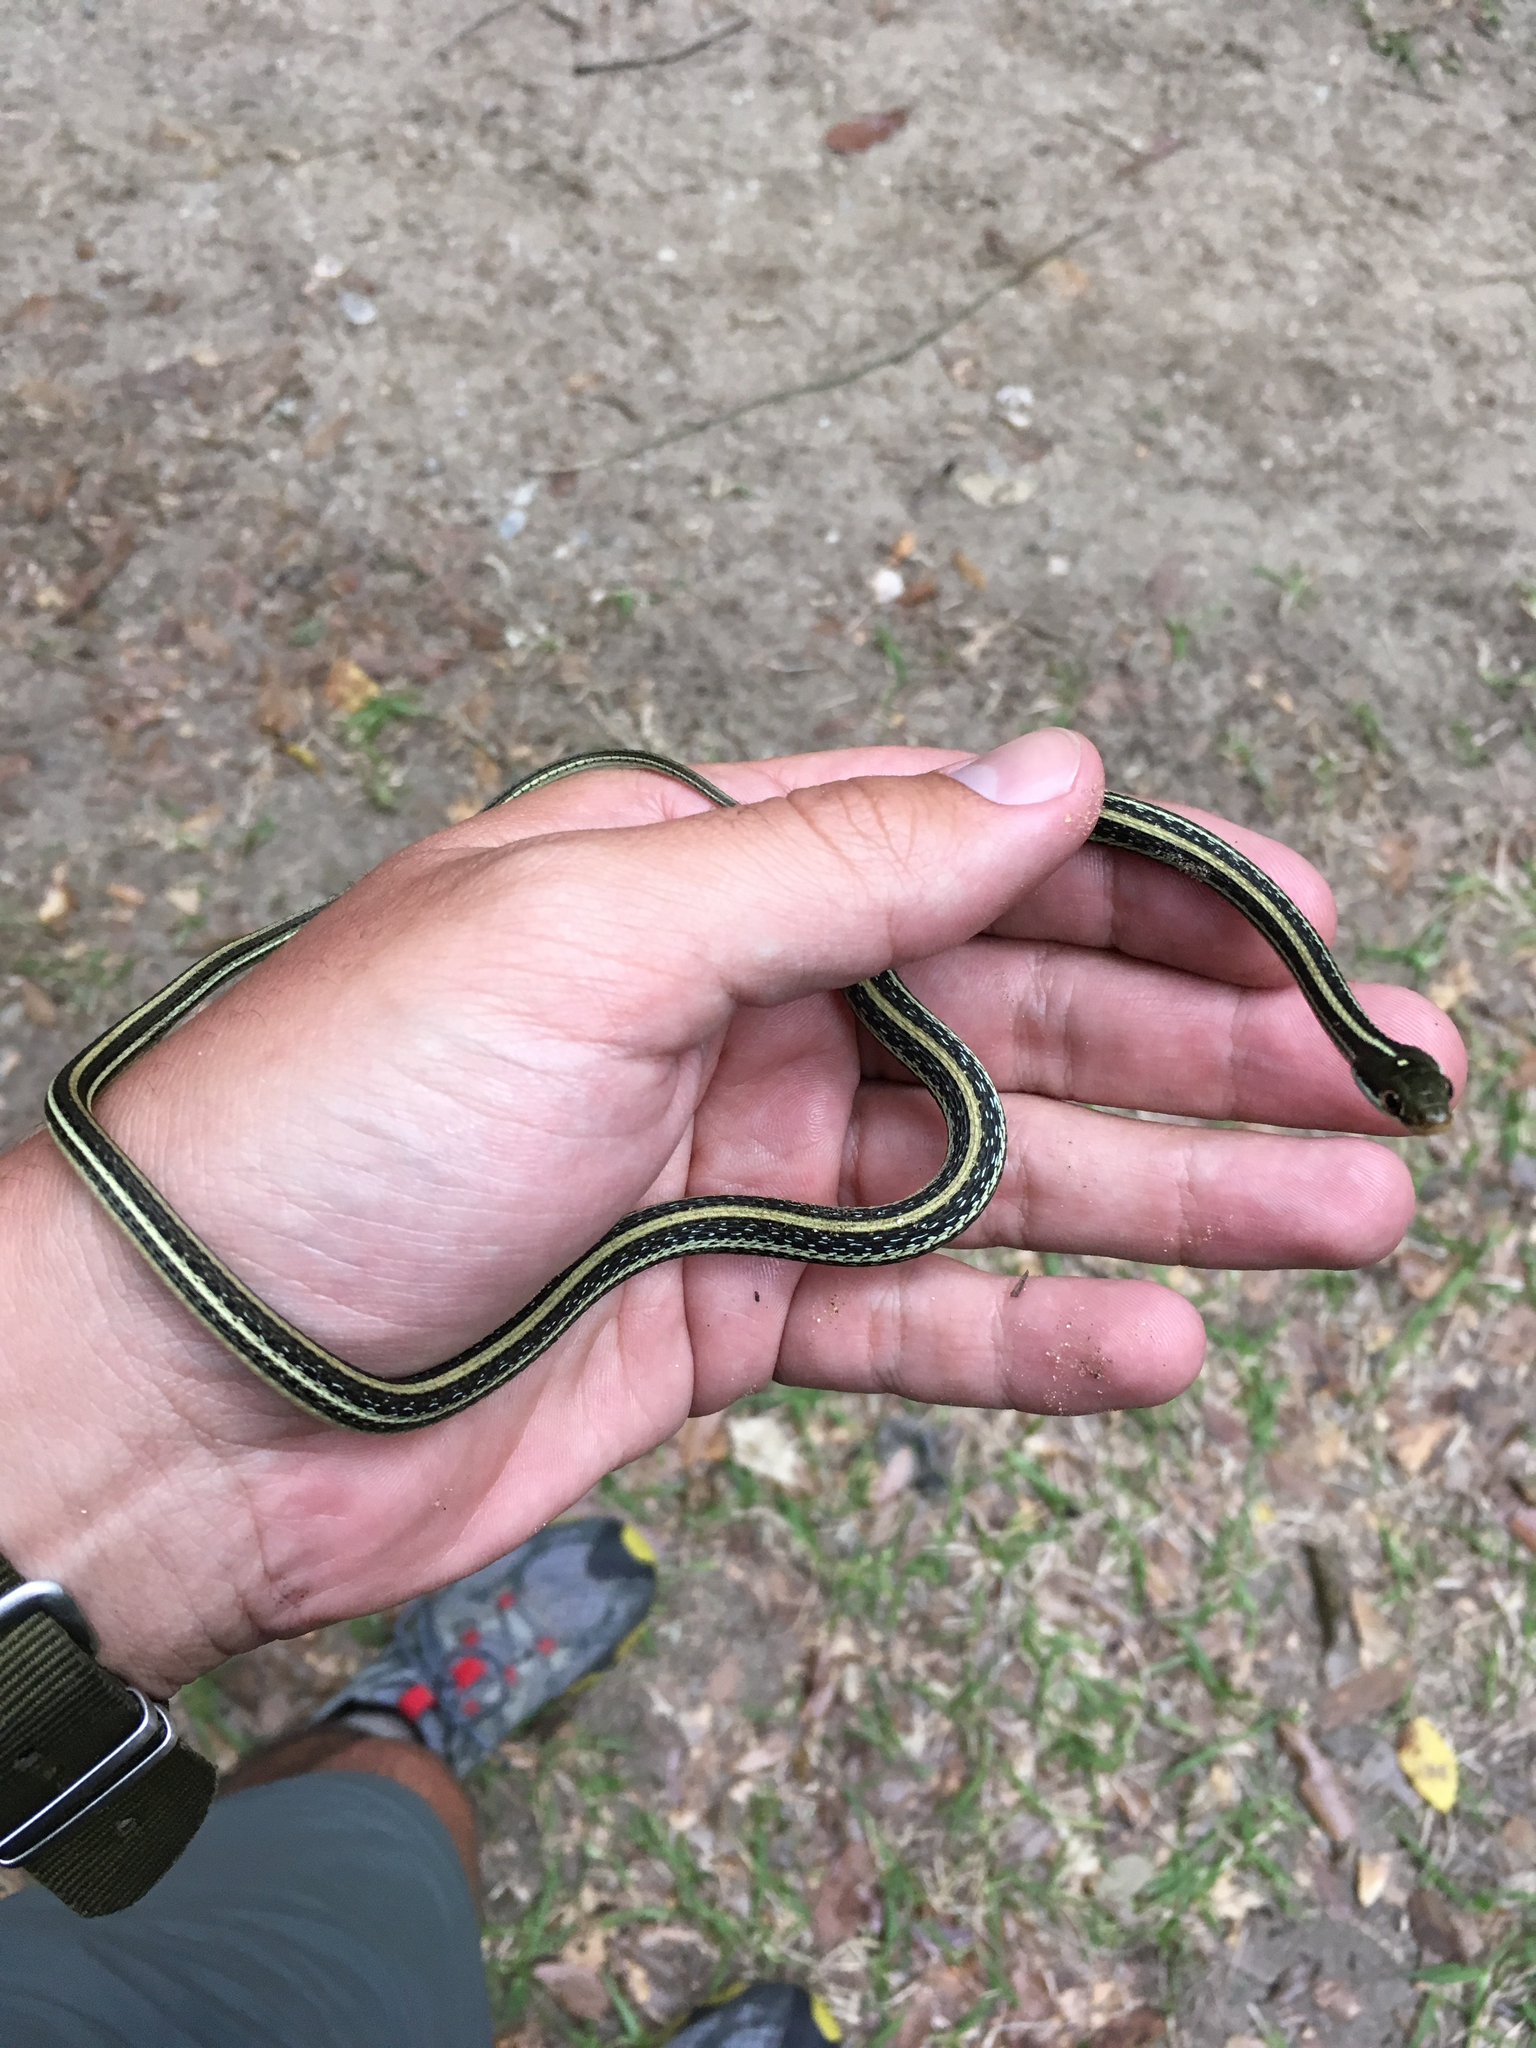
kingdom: Animalia
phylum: Chordata
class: Squamata
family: Colubridae
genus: Thamnophis
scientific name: Thamnophis proximus
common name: Western ribbon snake
